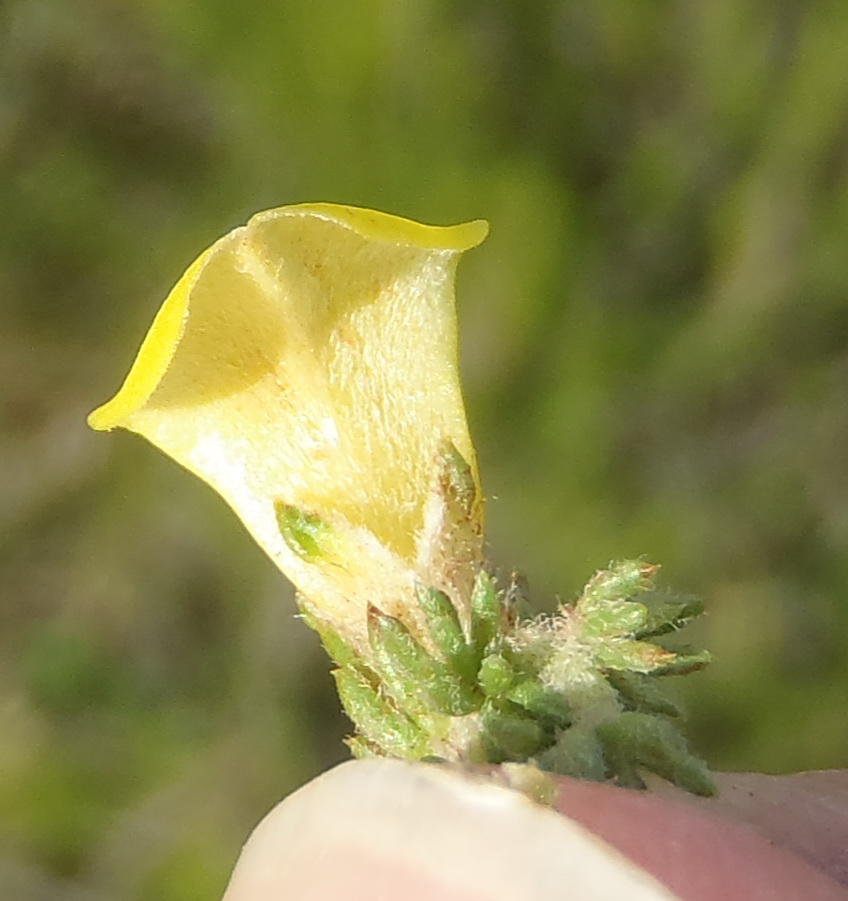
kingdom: Plantae
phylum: Tracheophyta
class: Magnoliopsida
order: Fabales
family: Fabaceae
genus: Aspalathus
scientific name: Aspalathus opaca
